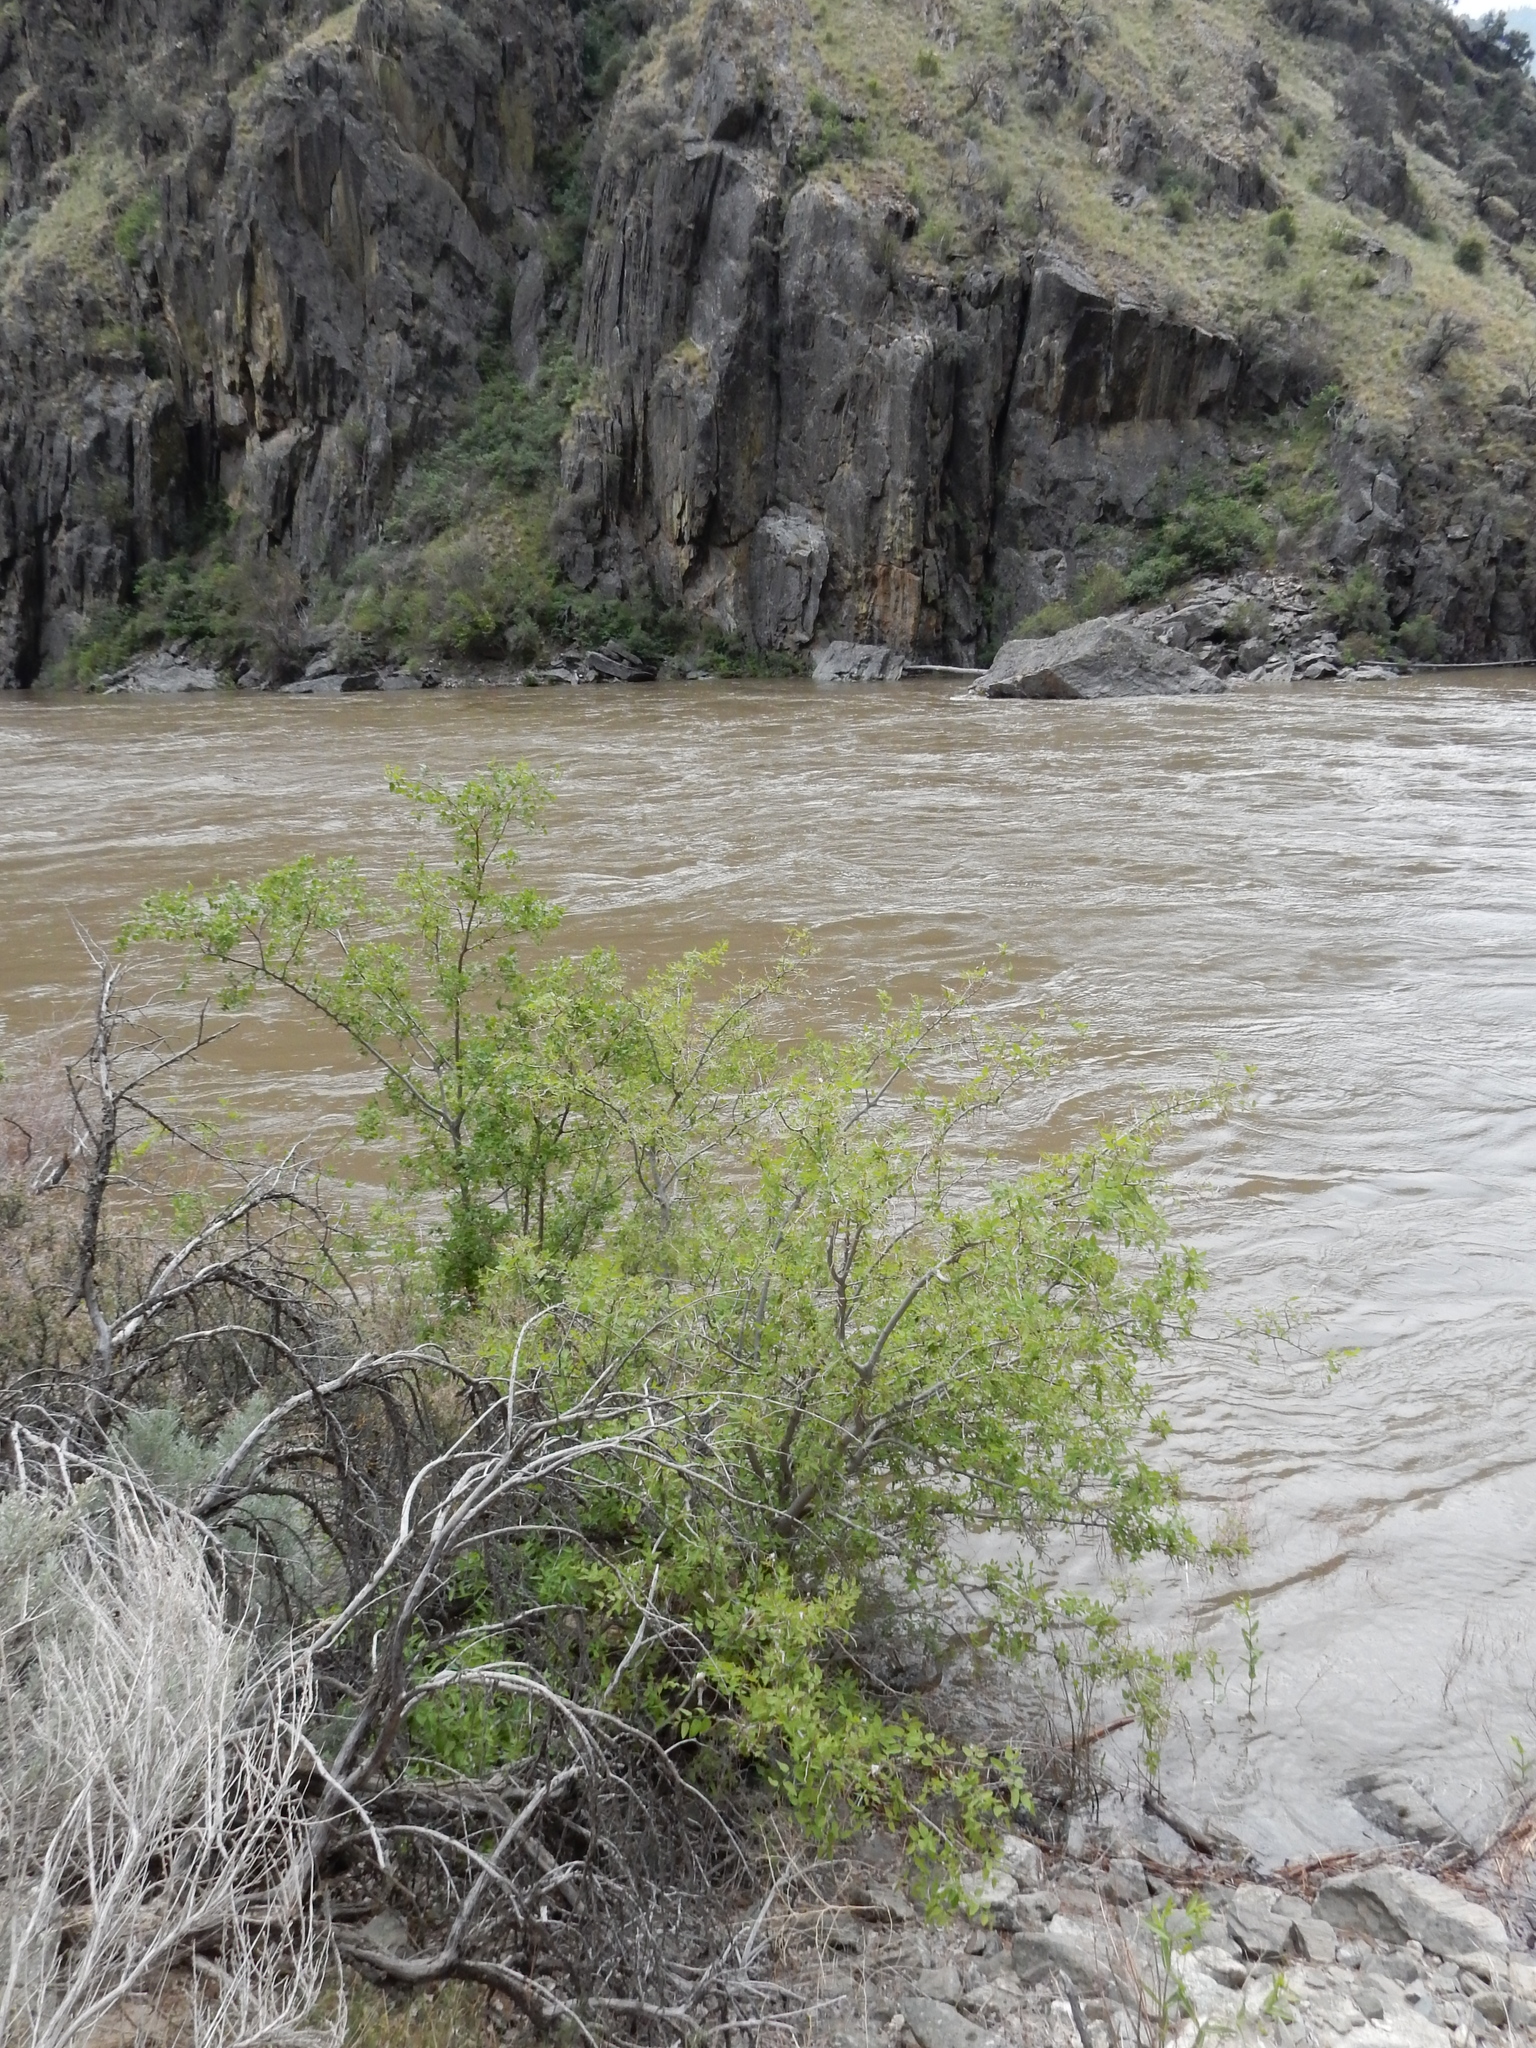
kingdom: Plantae
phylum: Tracheophyta
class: Magnoliopsida
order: Rosales
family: Cannabaceae
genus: Celtis
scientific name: Celtis reticulata
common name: Netleaf hackberry
